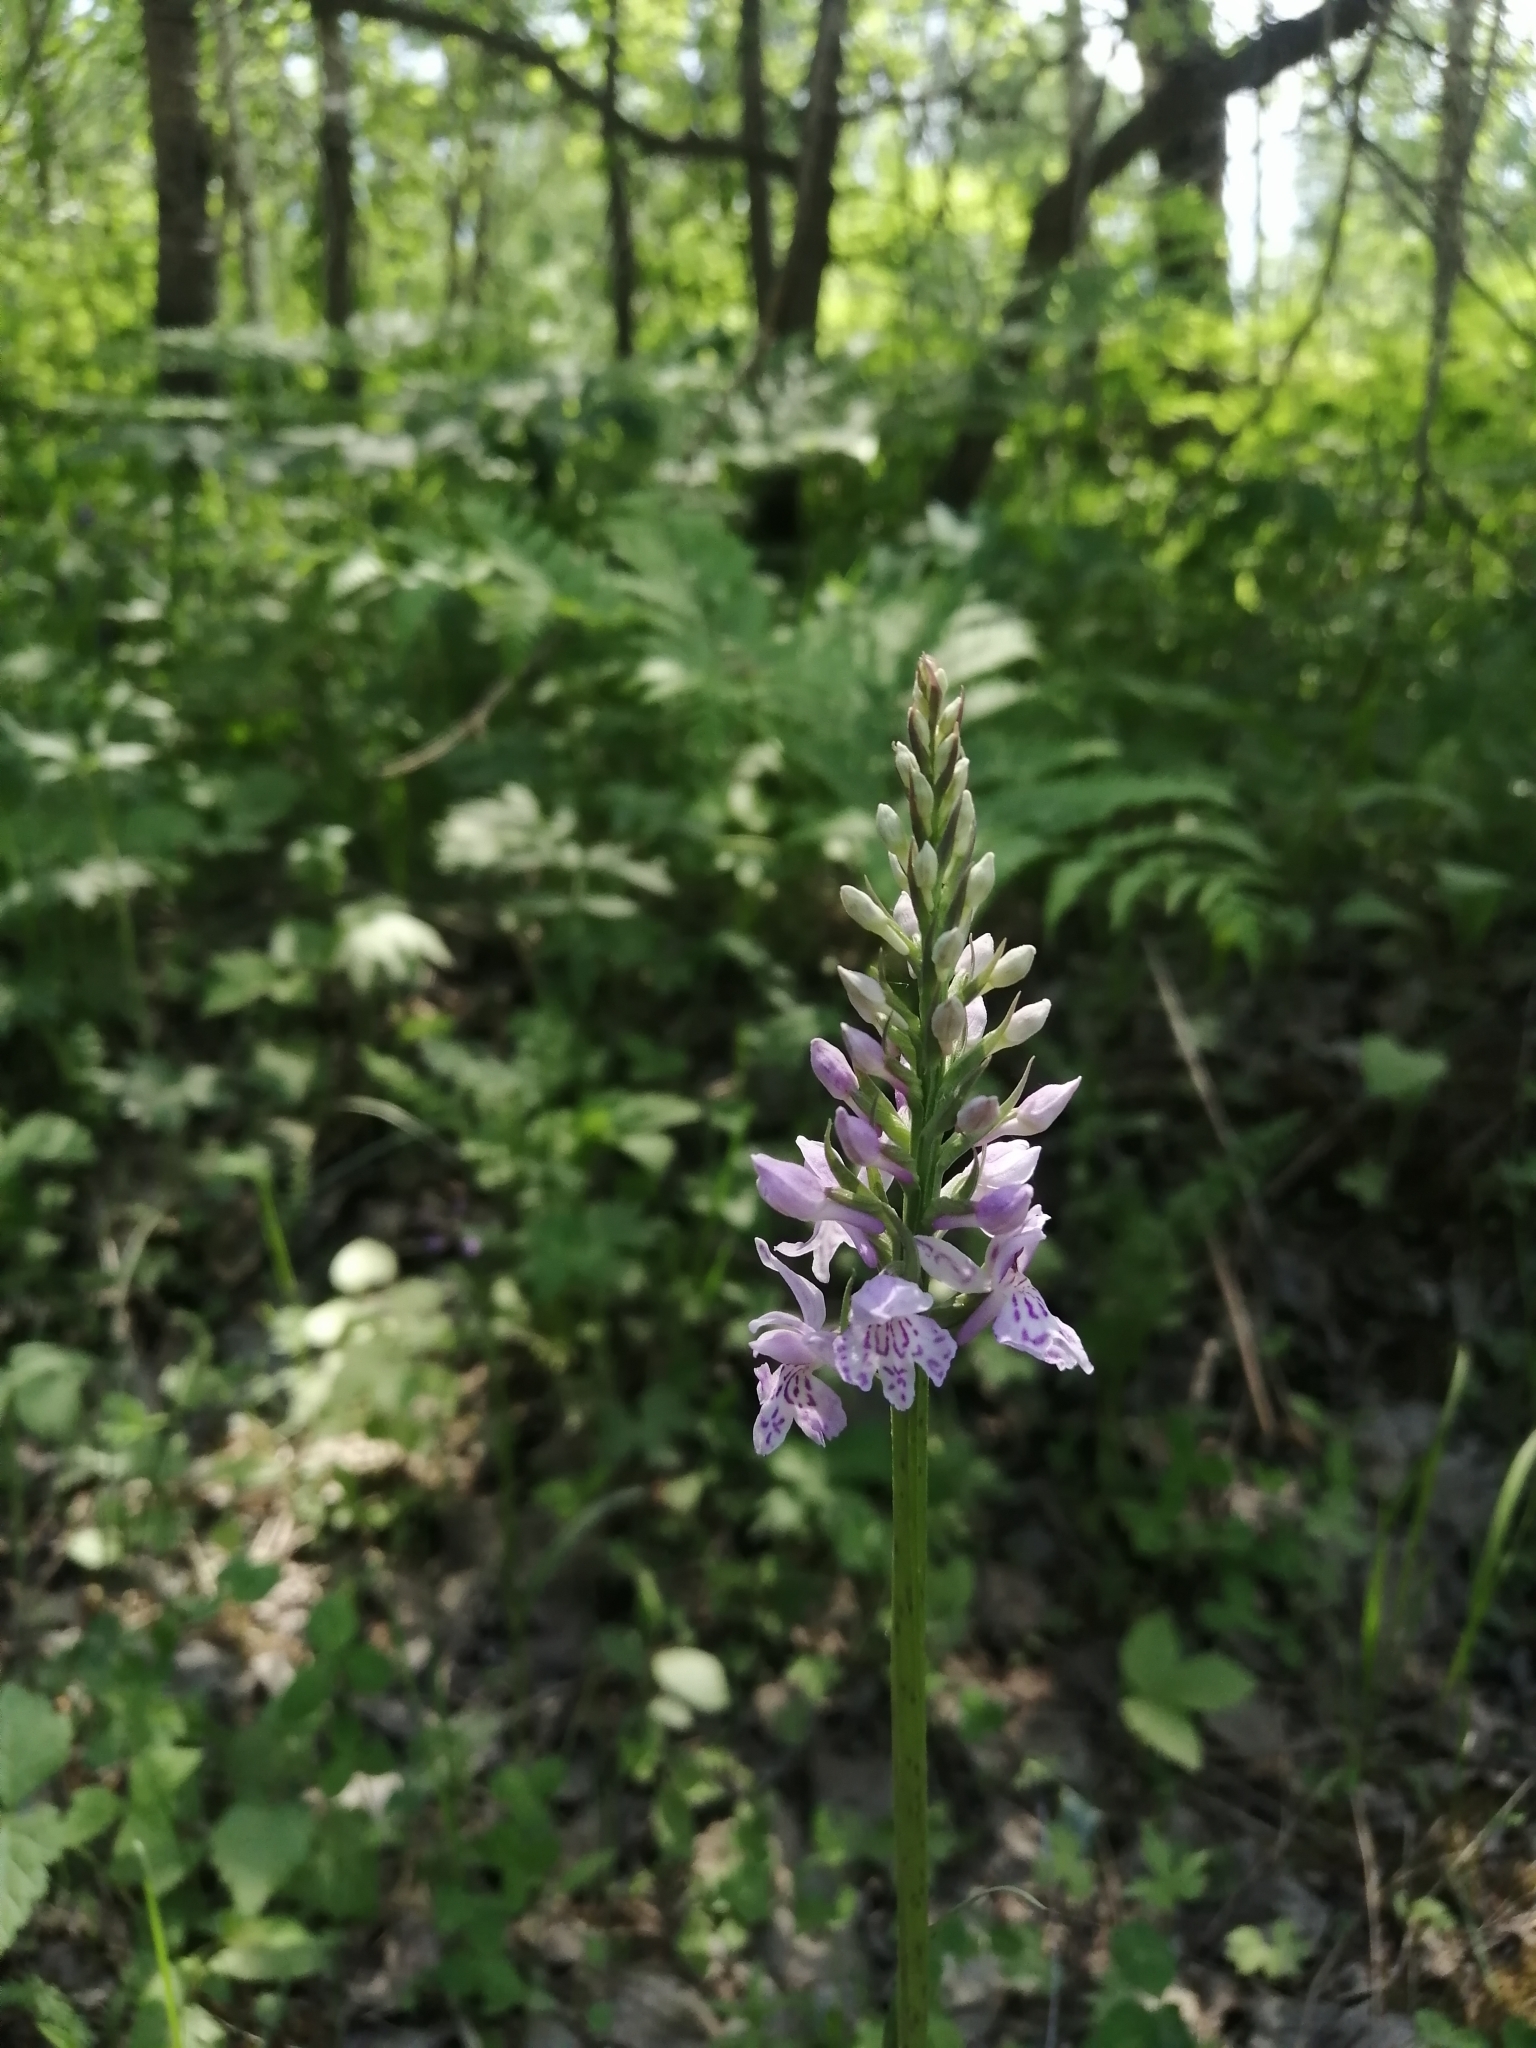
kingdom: Plantae
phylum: Tracheophyta
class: Liliopsida
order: Asparagales
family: Orchidaceae
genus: Dactylorhiza
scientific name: Dactylorhiza maculata
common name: Heath spotted-orchid
